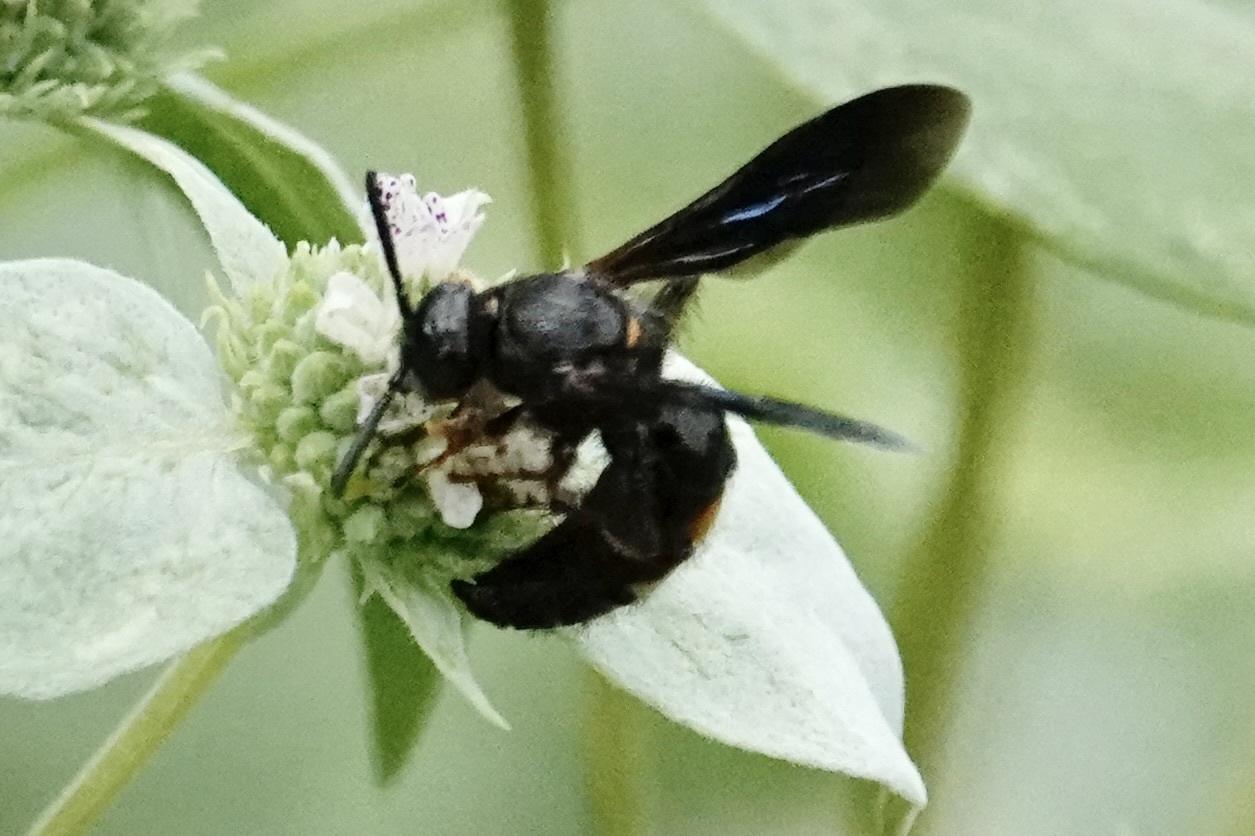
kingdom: Animalia
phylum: Arthropoda
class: Insecta
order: Hymenoptera
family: Scoliidae
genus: Scolia
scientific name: Scolia nobilitata
